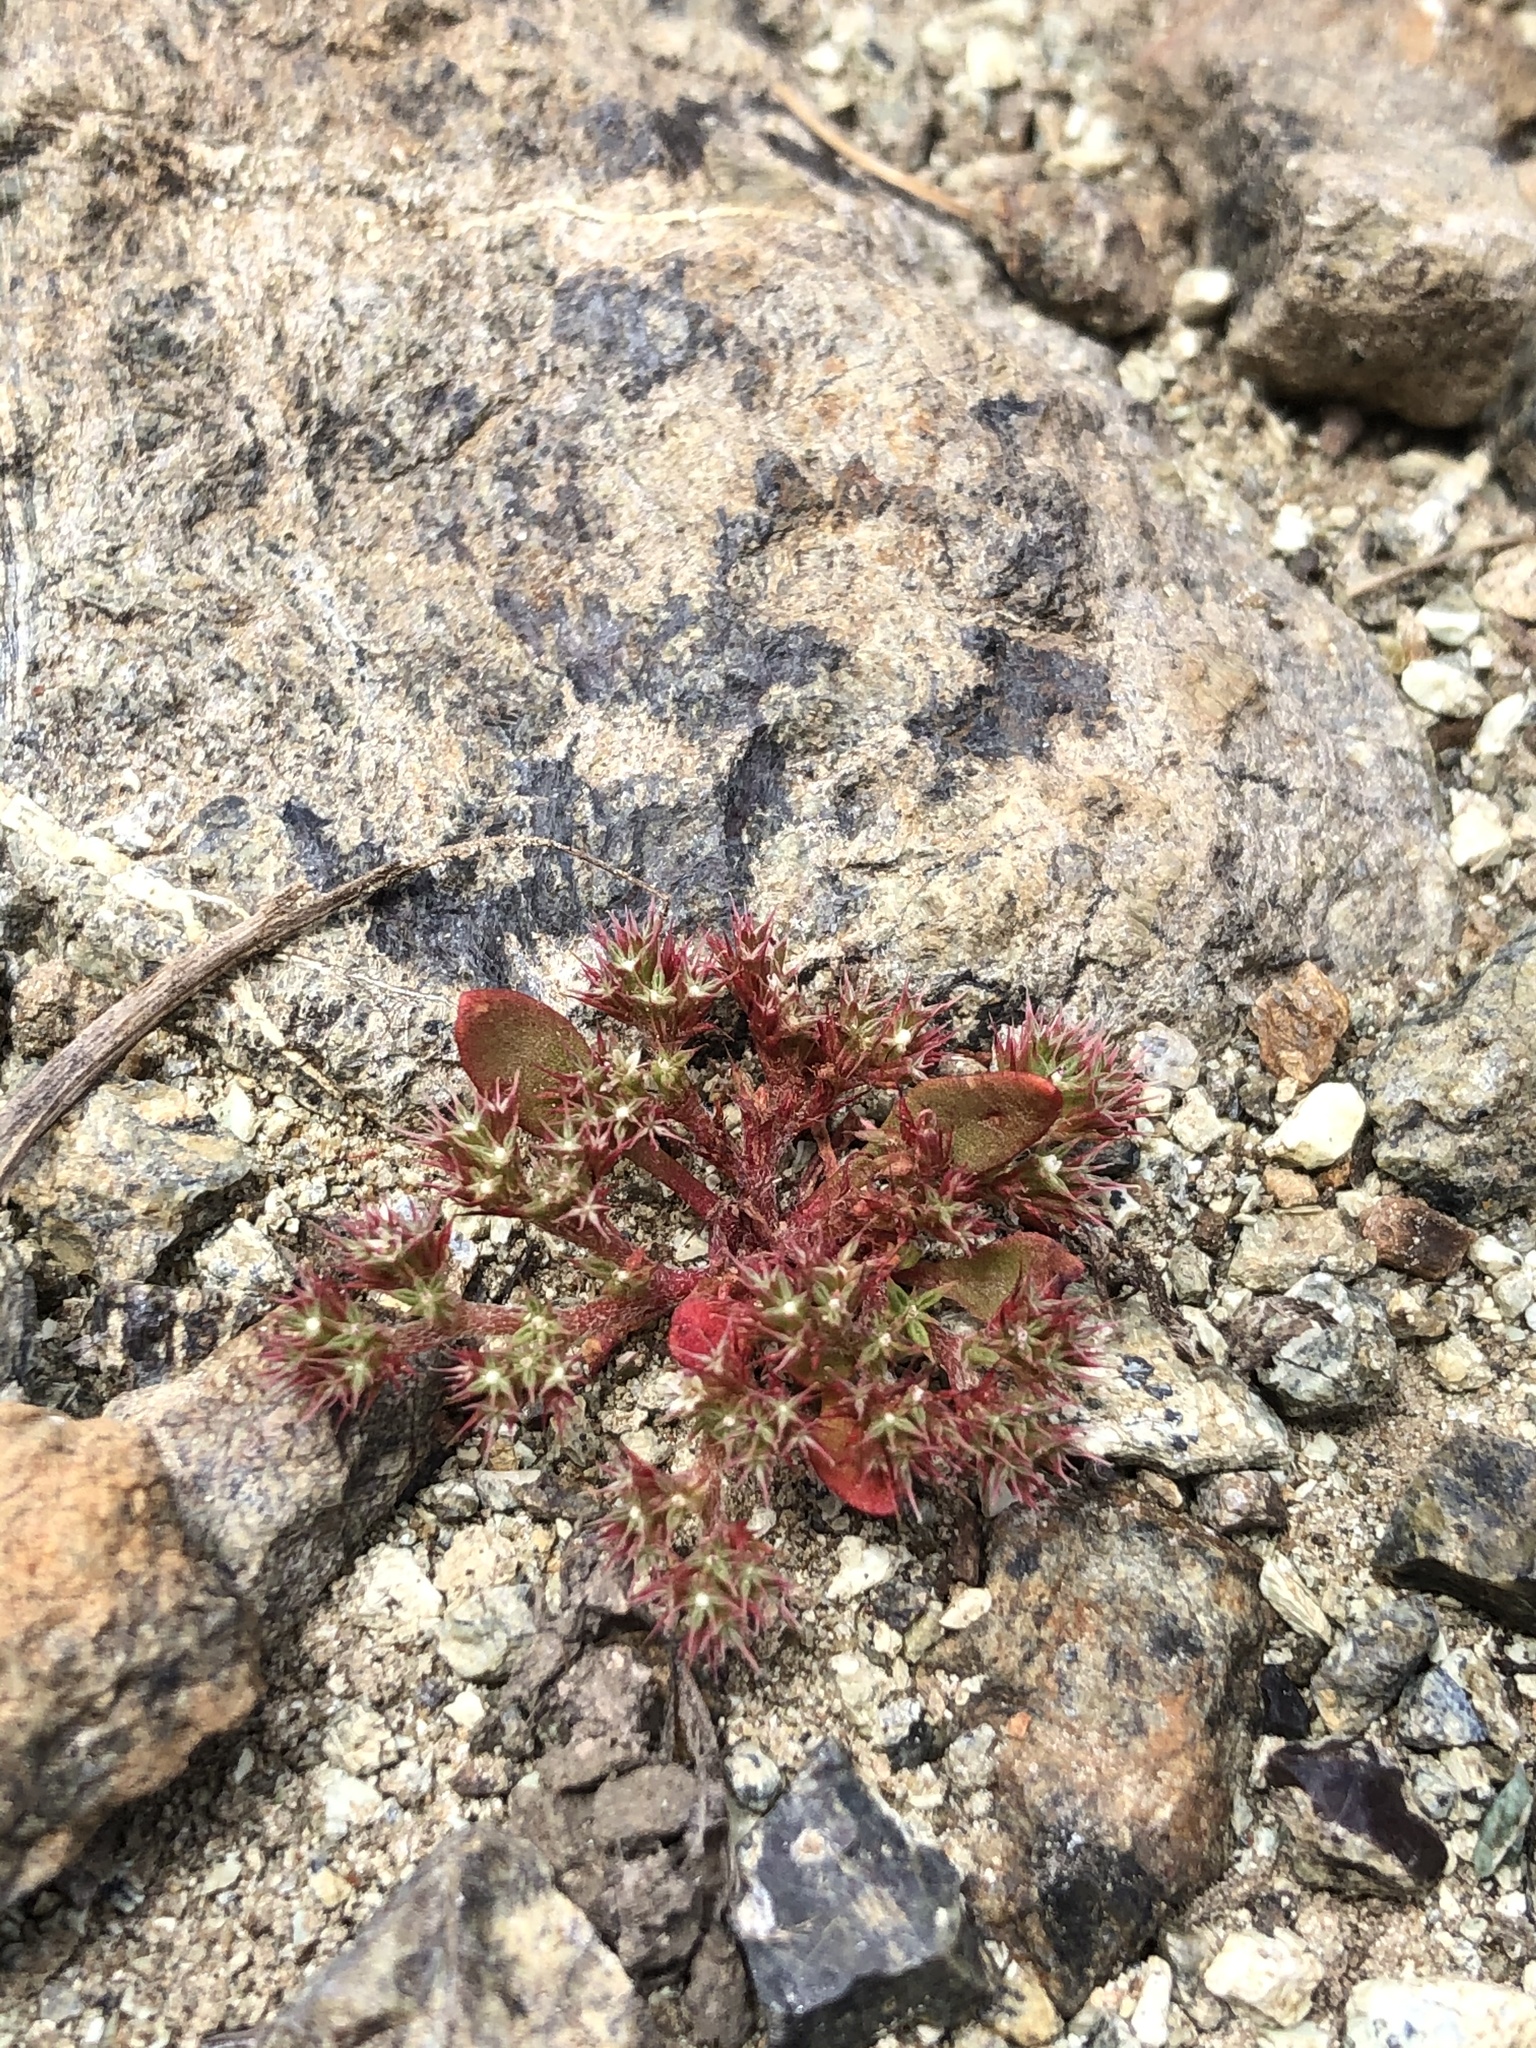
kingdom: Plantae
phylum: Tracheophyta
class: Magnoliopsida
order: Caryophyllales
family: Polygonaceae
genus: Chorizanthe
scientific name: Chorizanthe aphanantha
